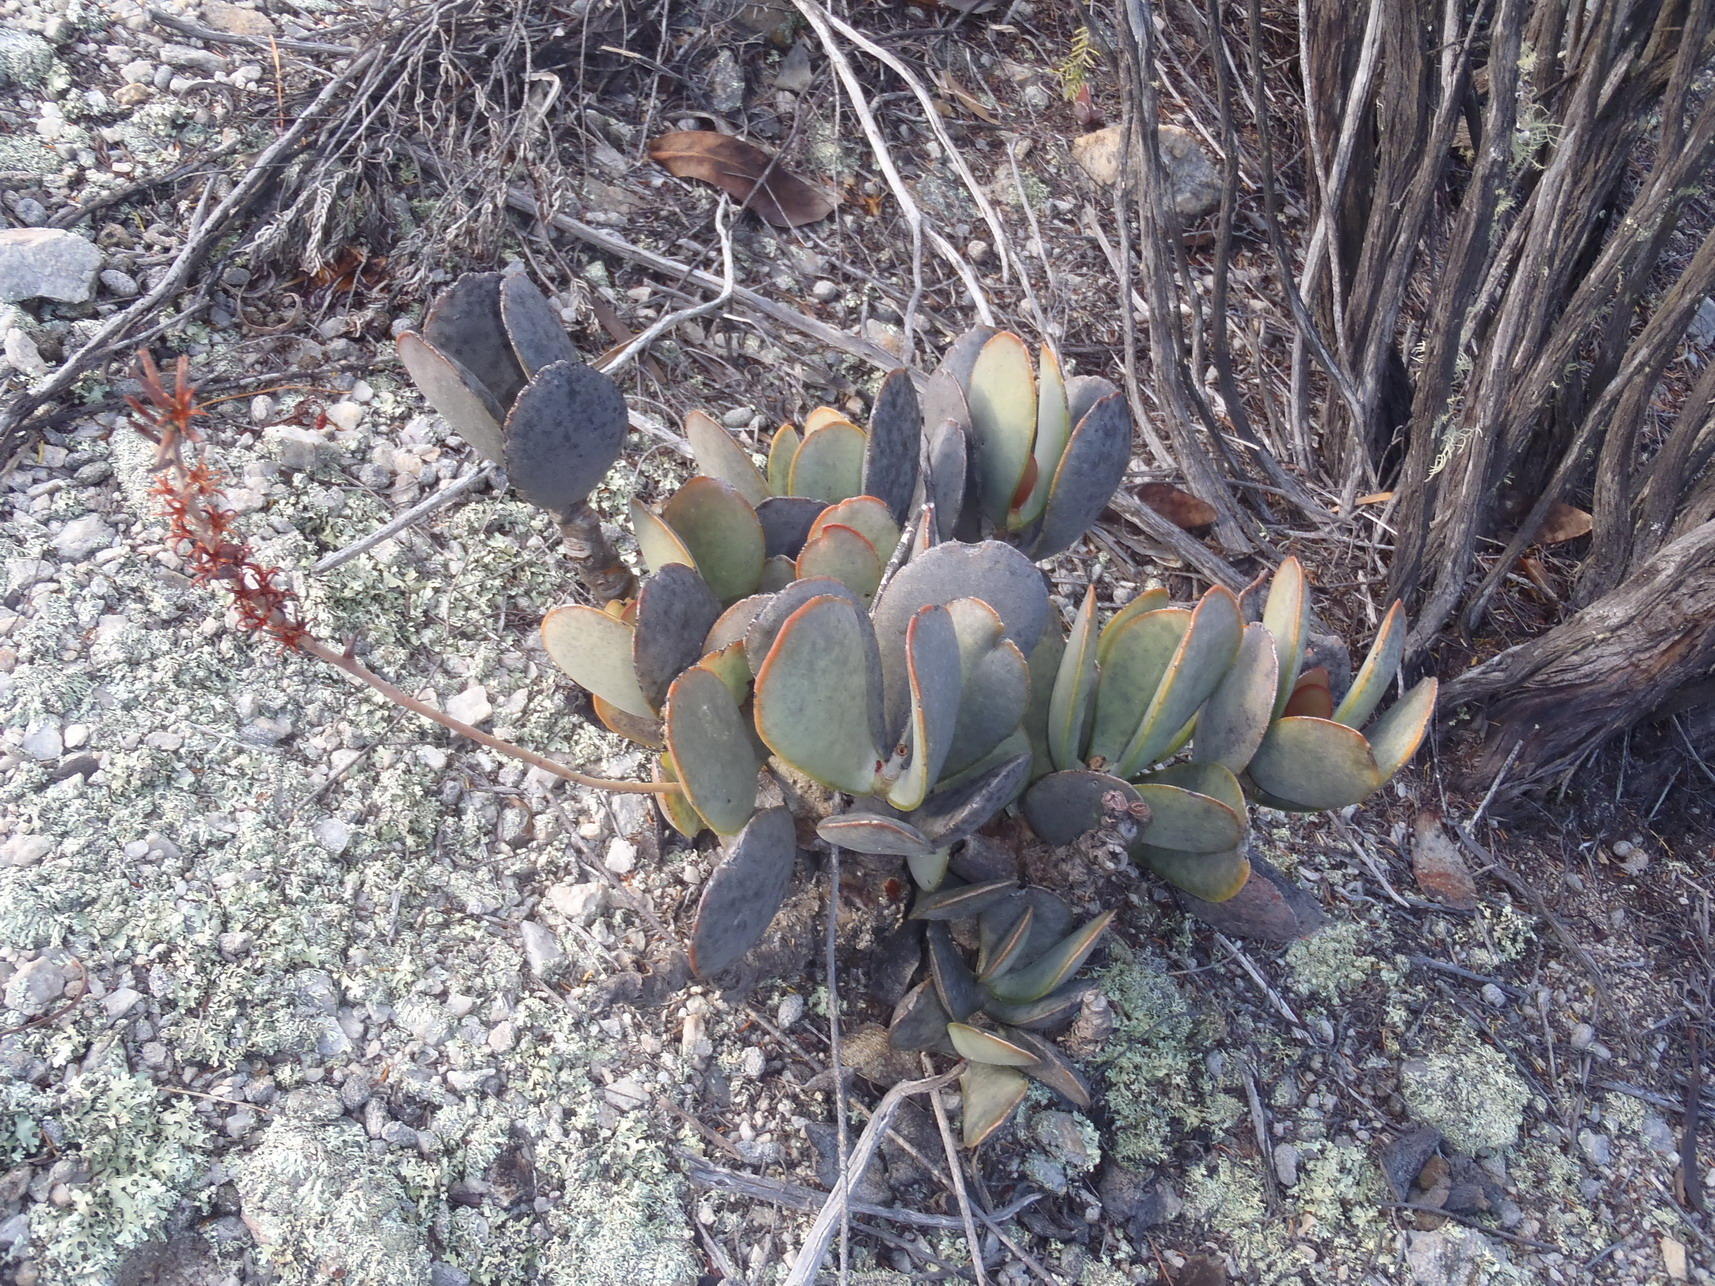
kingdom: Plantae
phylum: Tracheophyta
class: Magnoliopsida
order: Saxifragales
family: Crassulaceae
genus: Adromischus
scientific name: Adromischus sphenophyllus
